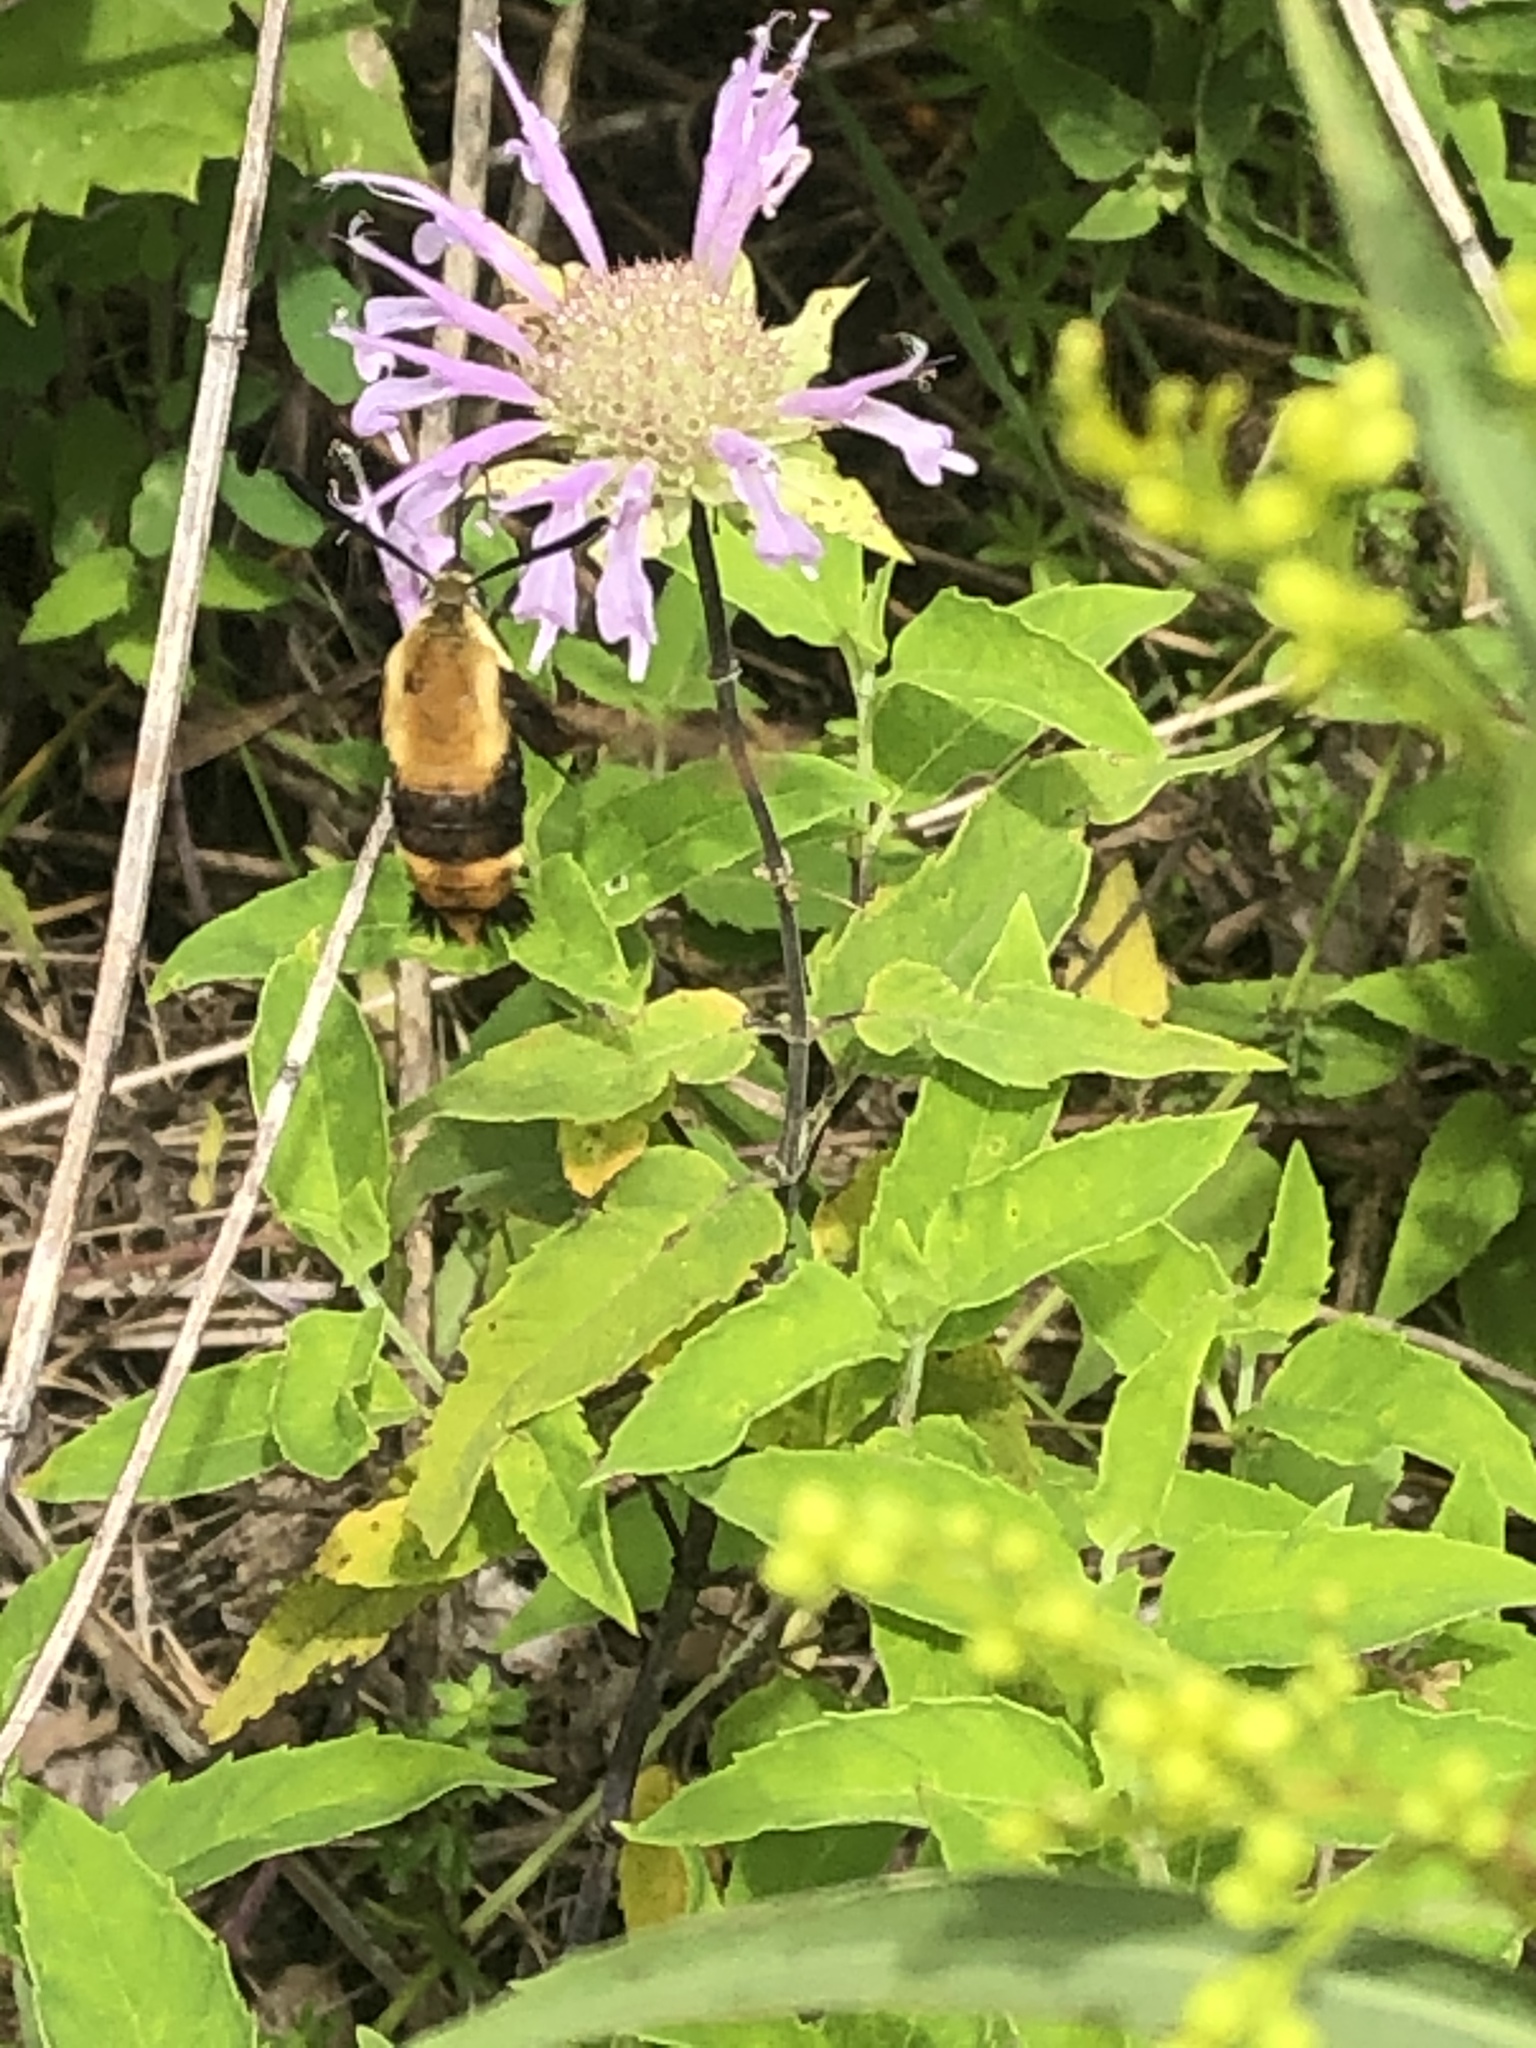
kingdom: Animalia
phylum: Arthropoda
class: Insecta
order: Lepidoptera
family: Sphingidae
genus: Hemaris
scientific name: Hemaris diffinis
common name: Bumblebee moth
